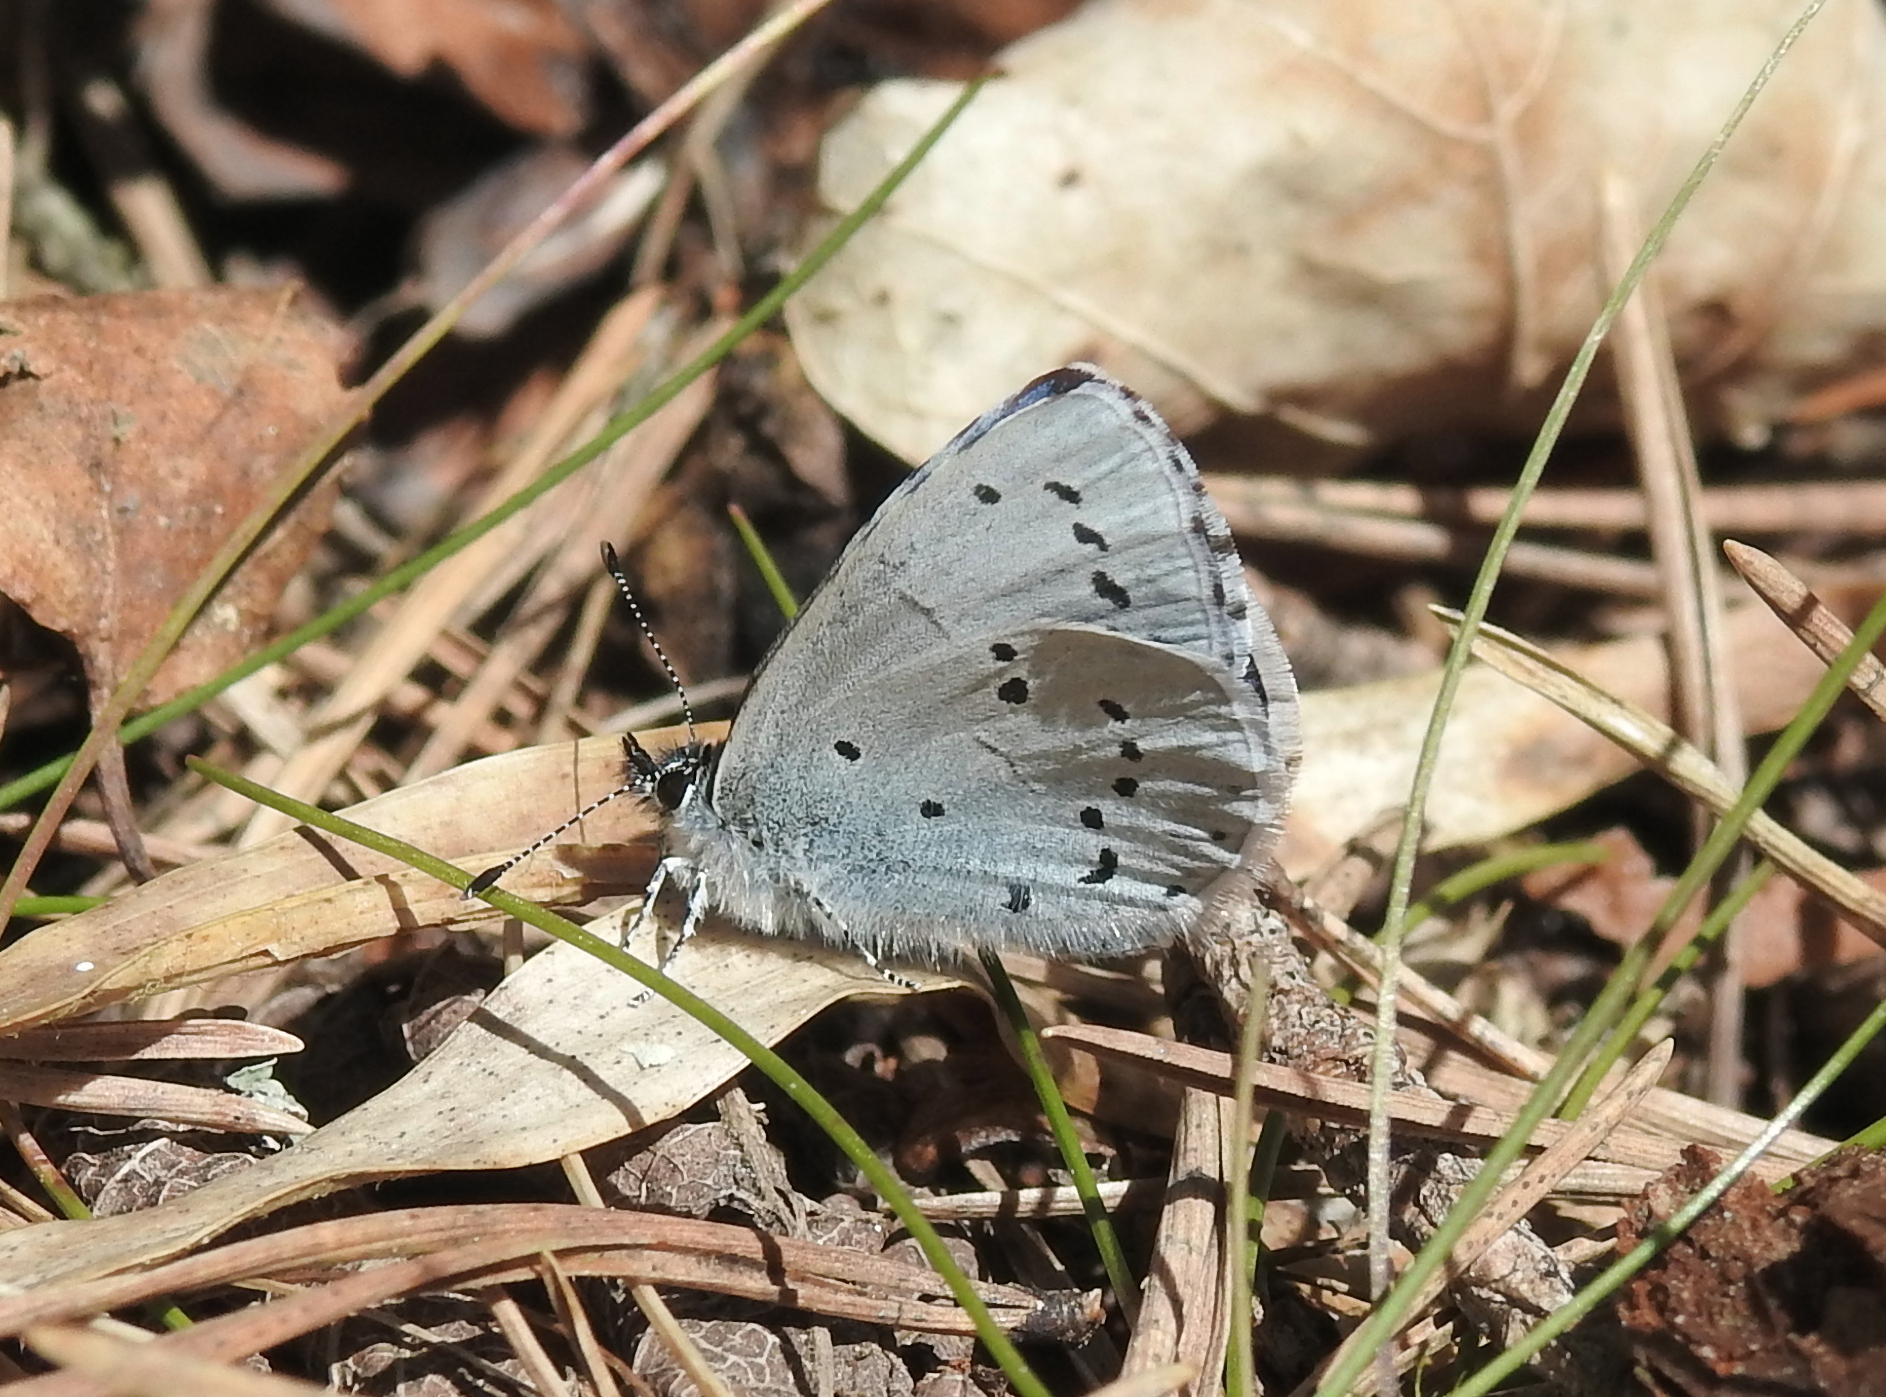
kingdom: Animalia
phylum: Arthropoda
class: Insecta
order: Lepidoptera
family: Lycaenidae
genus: Celastrina
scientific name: Celastrina argiolus
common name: Holly blue
